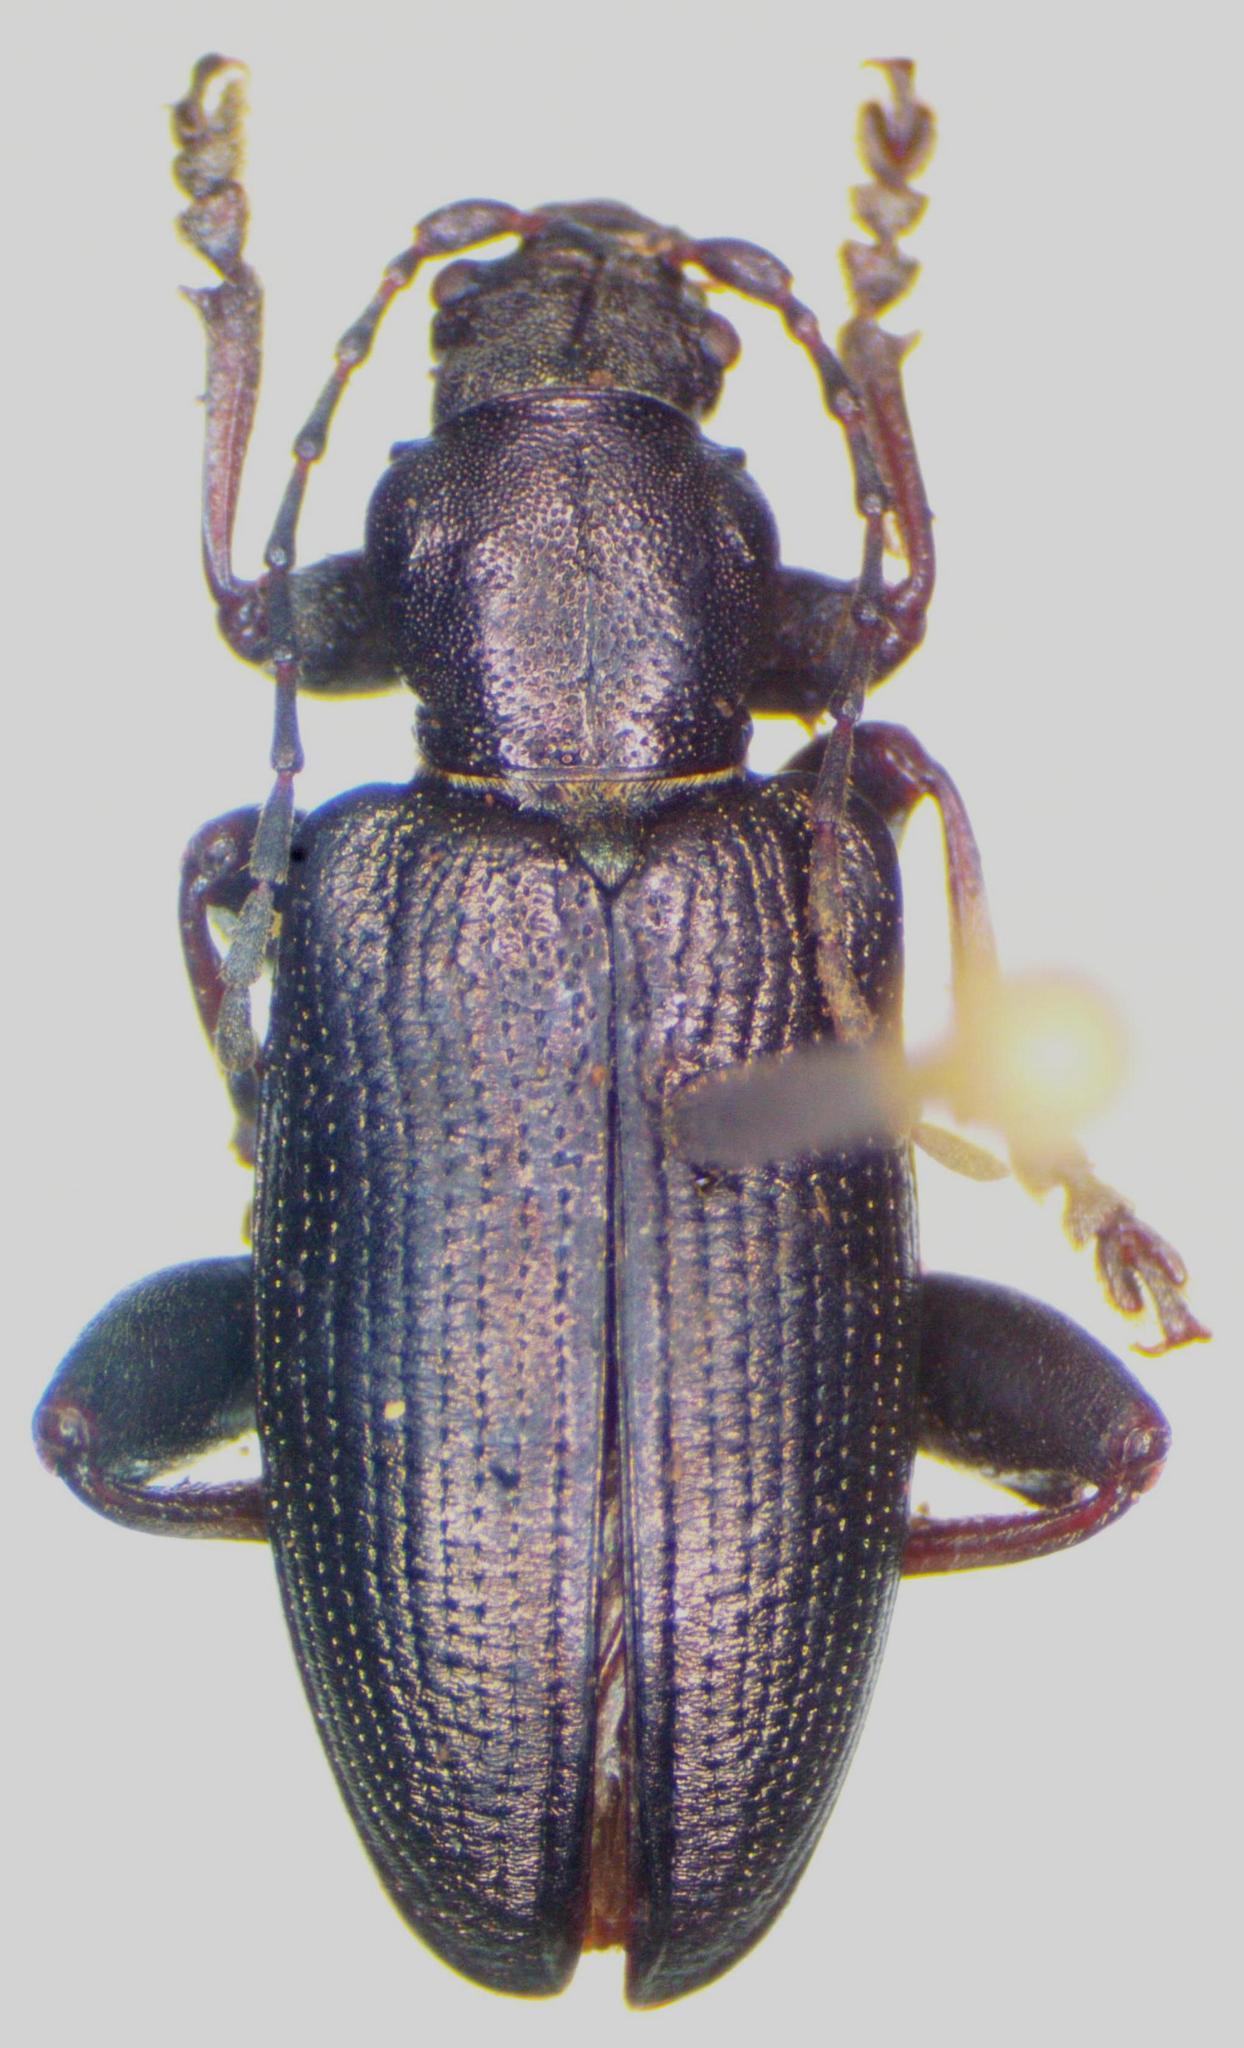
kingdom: Animalia
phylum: Arthropoda
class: Insecta
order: Coleoptera
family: Chrysomelidae
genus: Plateumaris
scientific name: Plateumaris consimilis
